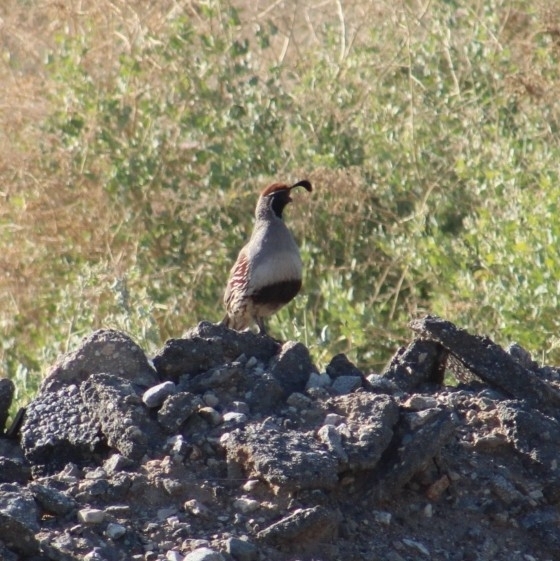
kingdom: Animalia
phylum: Chordata
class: Aves
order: Galliformes
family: Odontophoridae
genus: Callipepla
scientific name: Callipepla gambelii
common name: Gambel's quail
